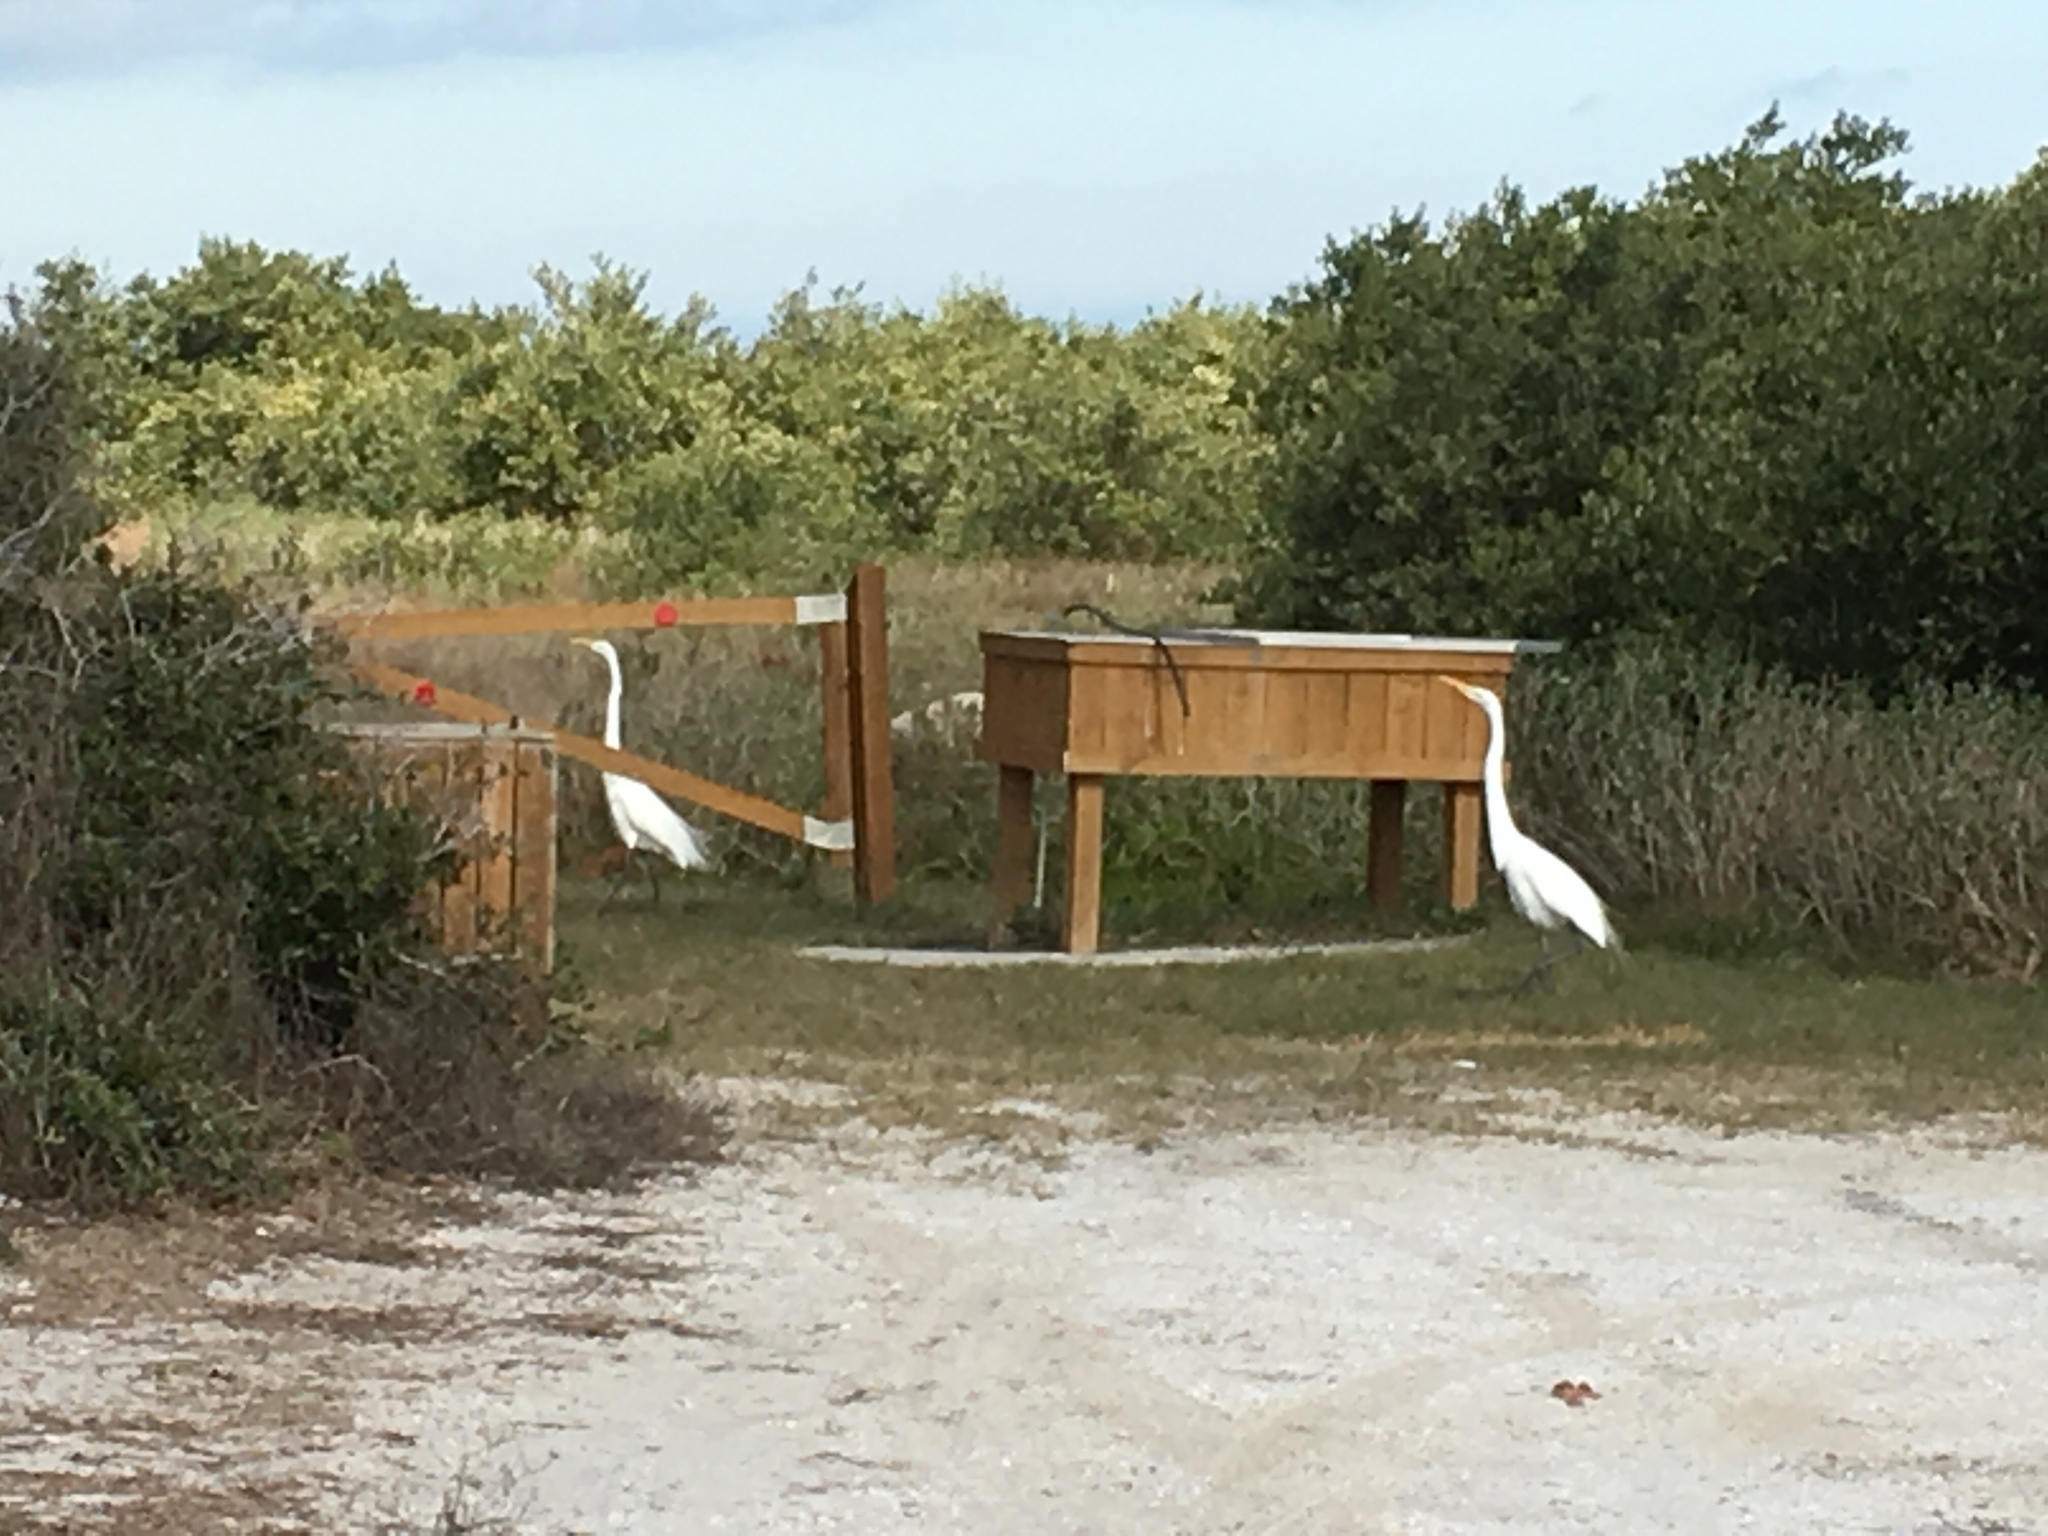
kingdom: Animalia
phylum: Chordata
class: Aves
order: Pelecaniformes
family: Ardeidae
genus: Ardea
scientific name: Ardea alba
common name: Great egret
